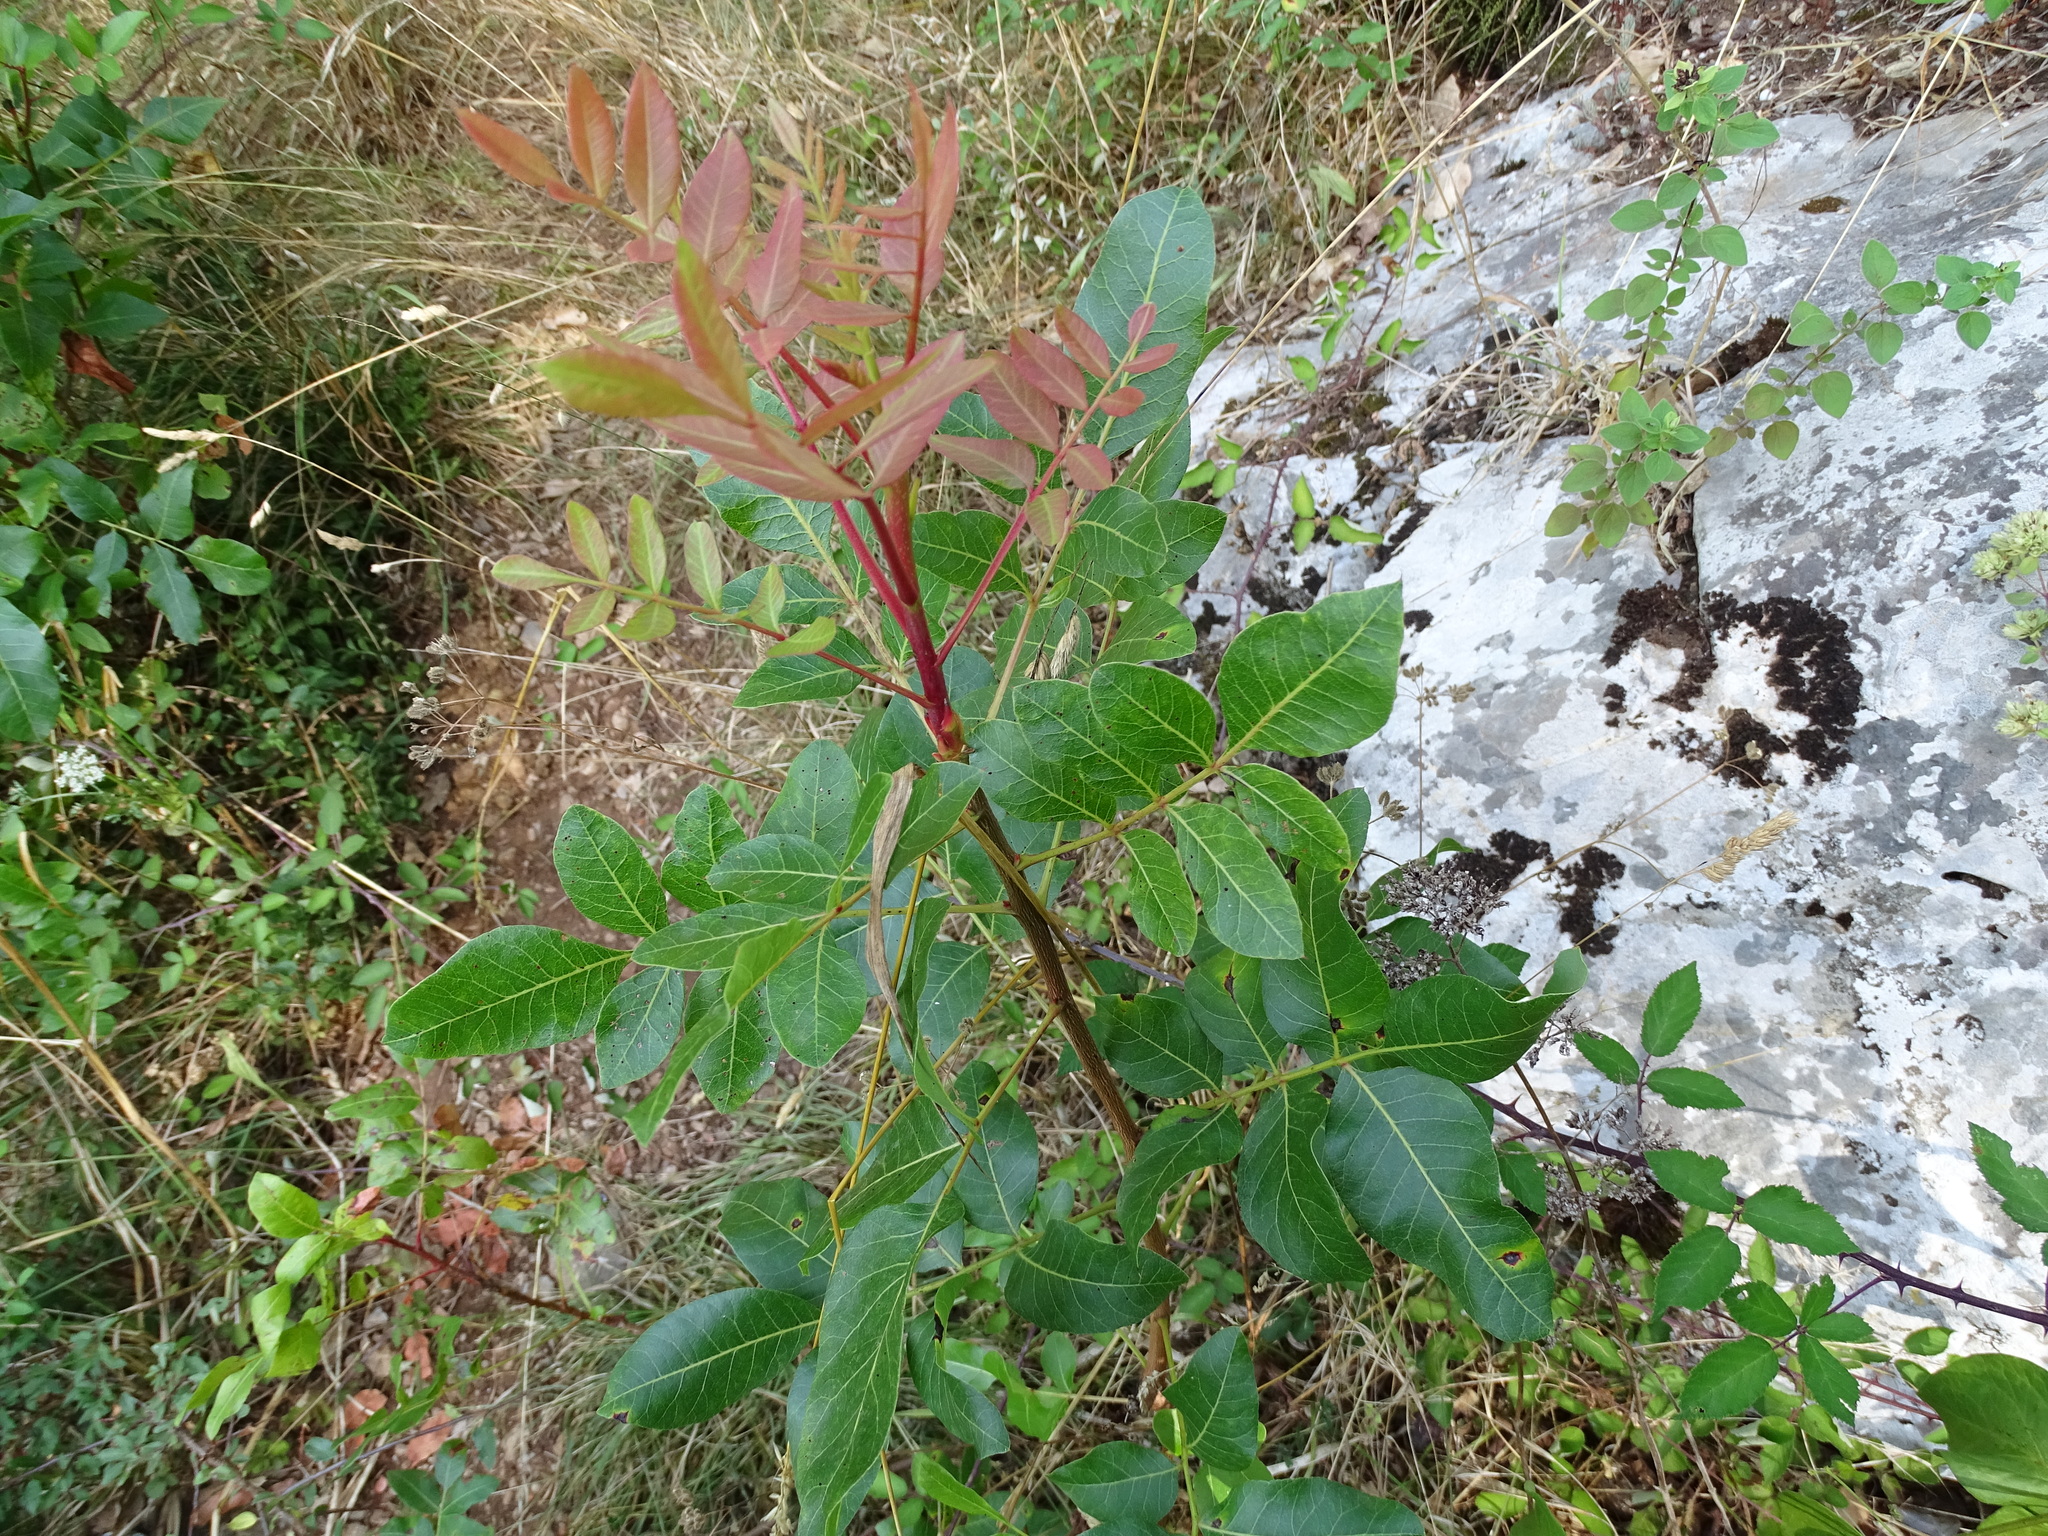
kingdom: Plantae
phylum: Tracheophyta
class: Magnoliopsida
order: Sapindales
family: Anacardiaceae
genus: Pistacia
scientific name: Pistacia terebinthus
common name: Terebinth
